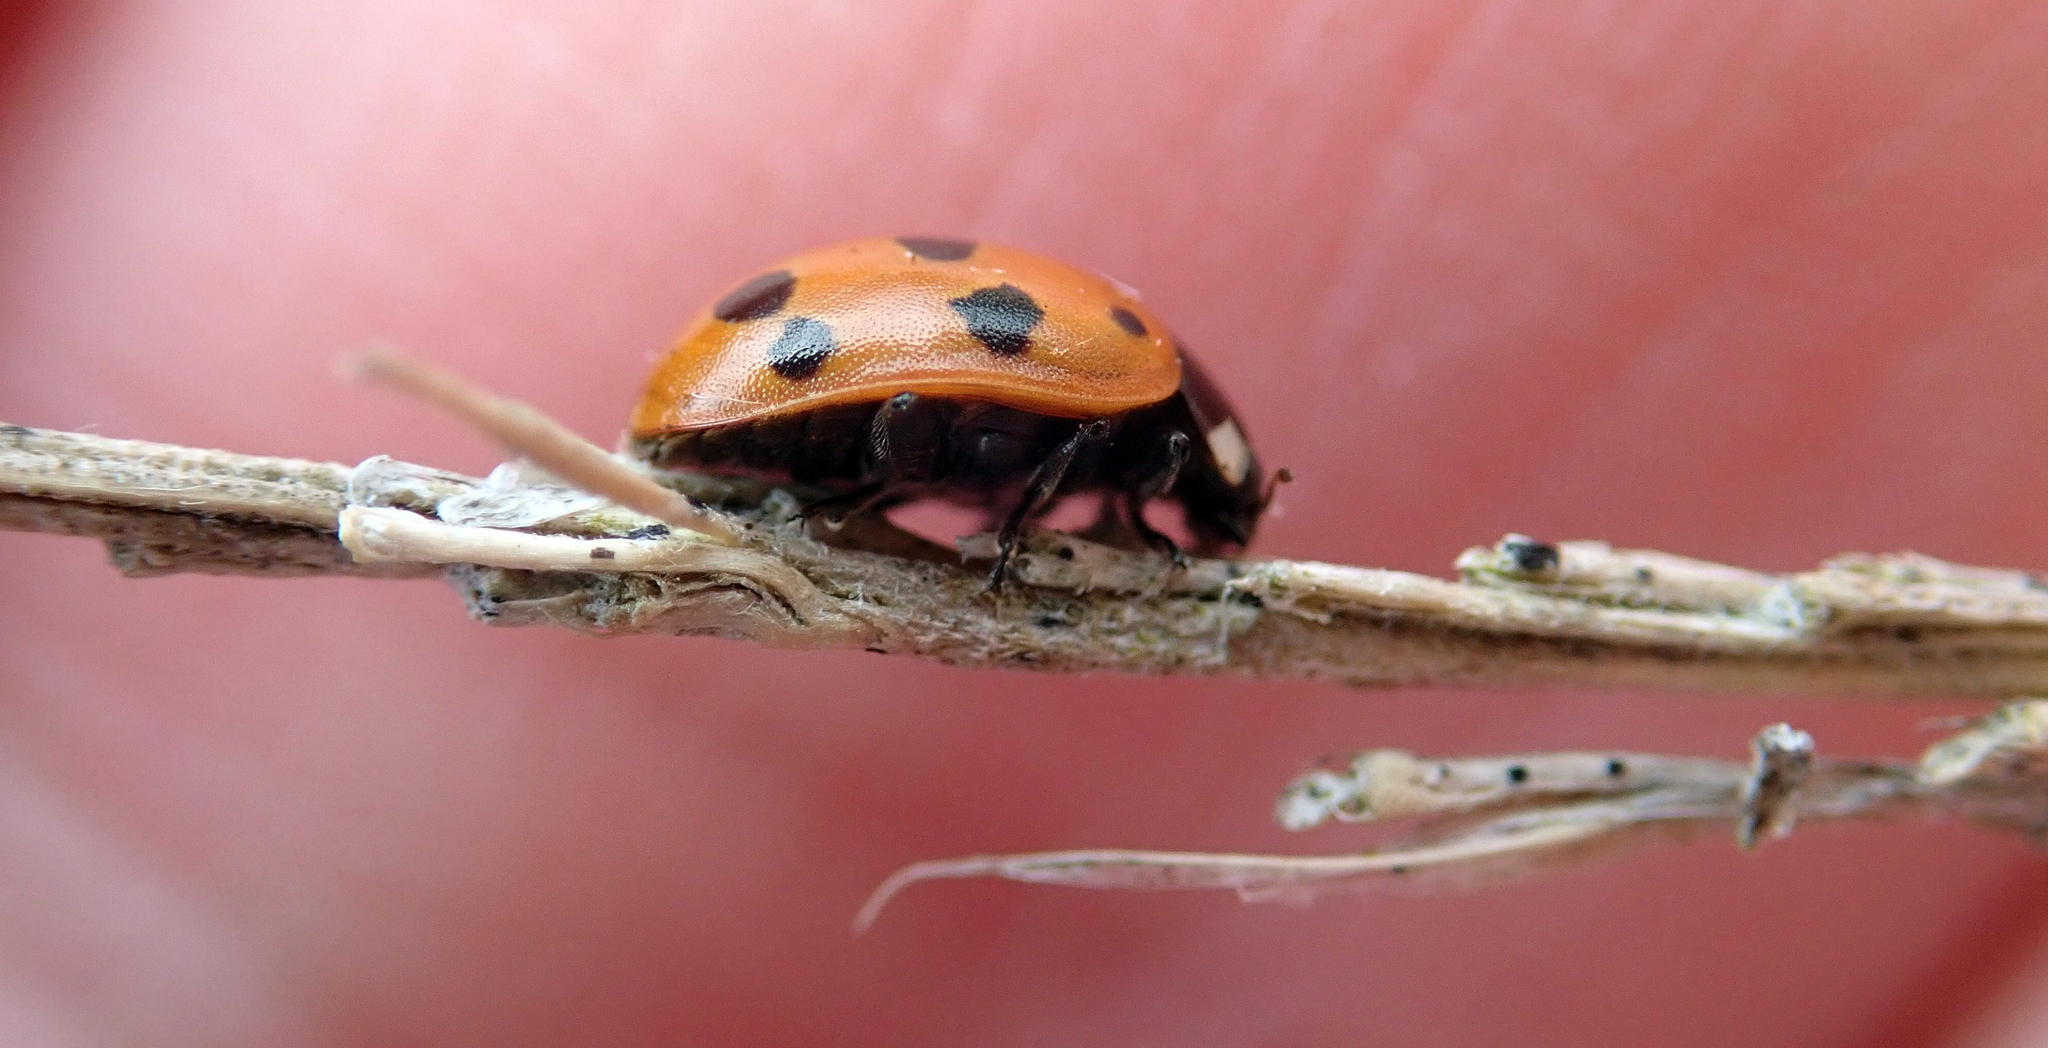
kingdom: Animalia
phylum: Arthropoda
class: Insecta
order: Coleoptera
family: Coccinellidae
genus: Coccinella
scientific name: Coccinella undecimpunctata
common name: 11-spot ladybird
